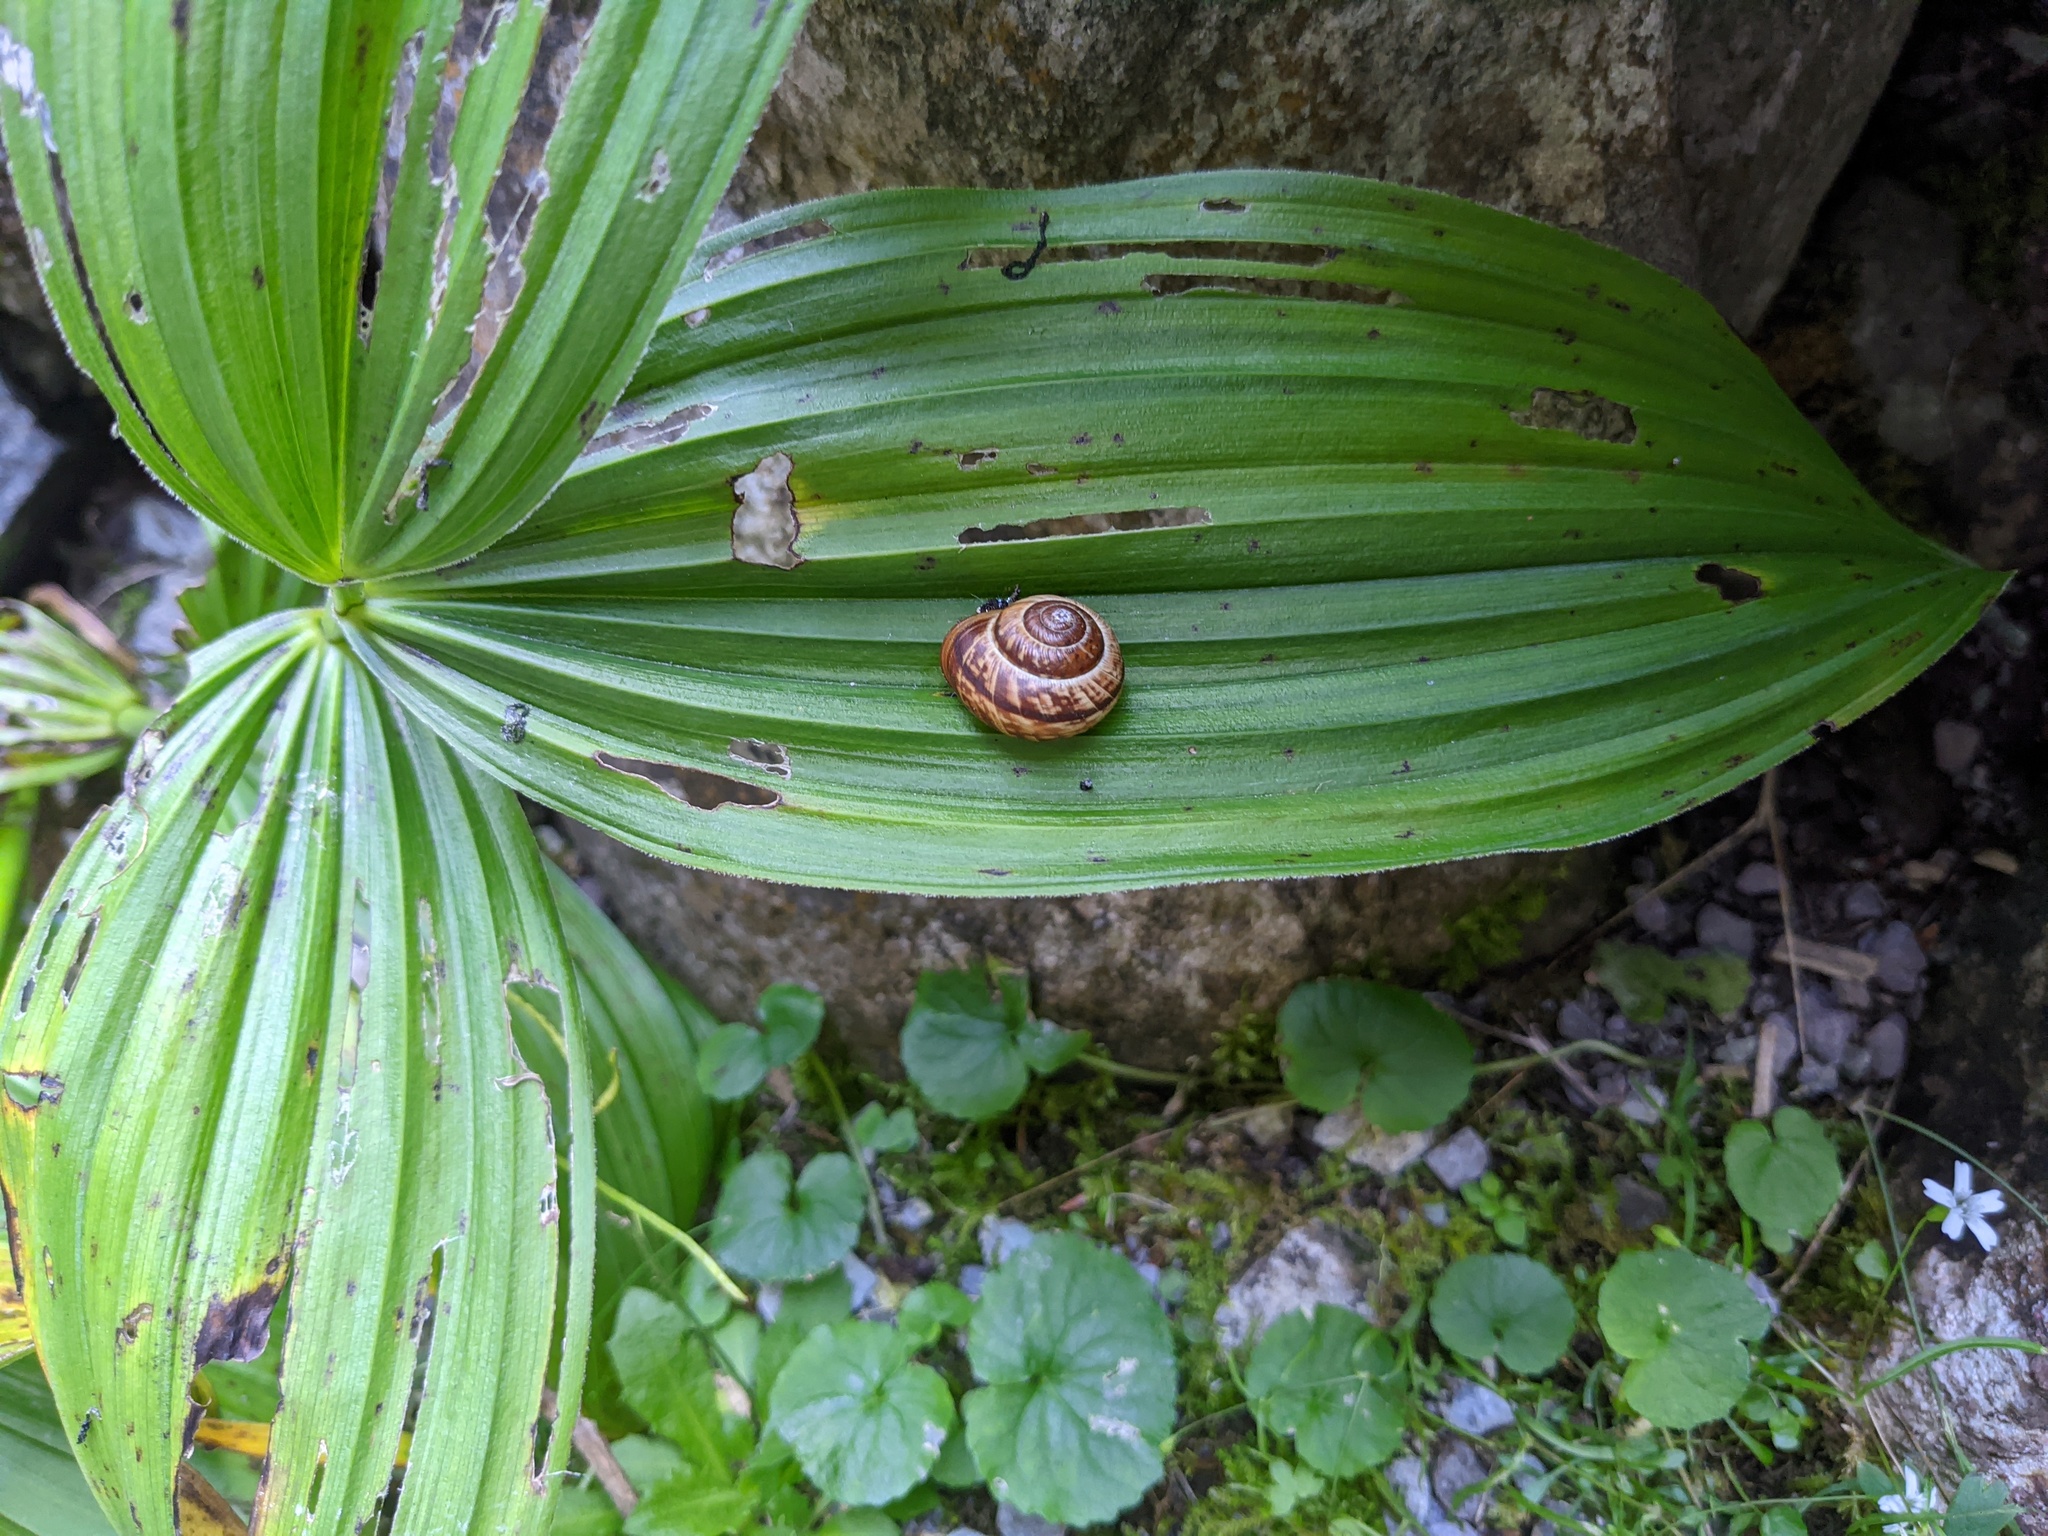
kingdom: Animalia
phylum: Mollusca
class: Gastropoda
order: Stylommatophora
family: Helicidae
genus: Arianta
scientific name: Arianta arbustorum
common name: Copse snail
